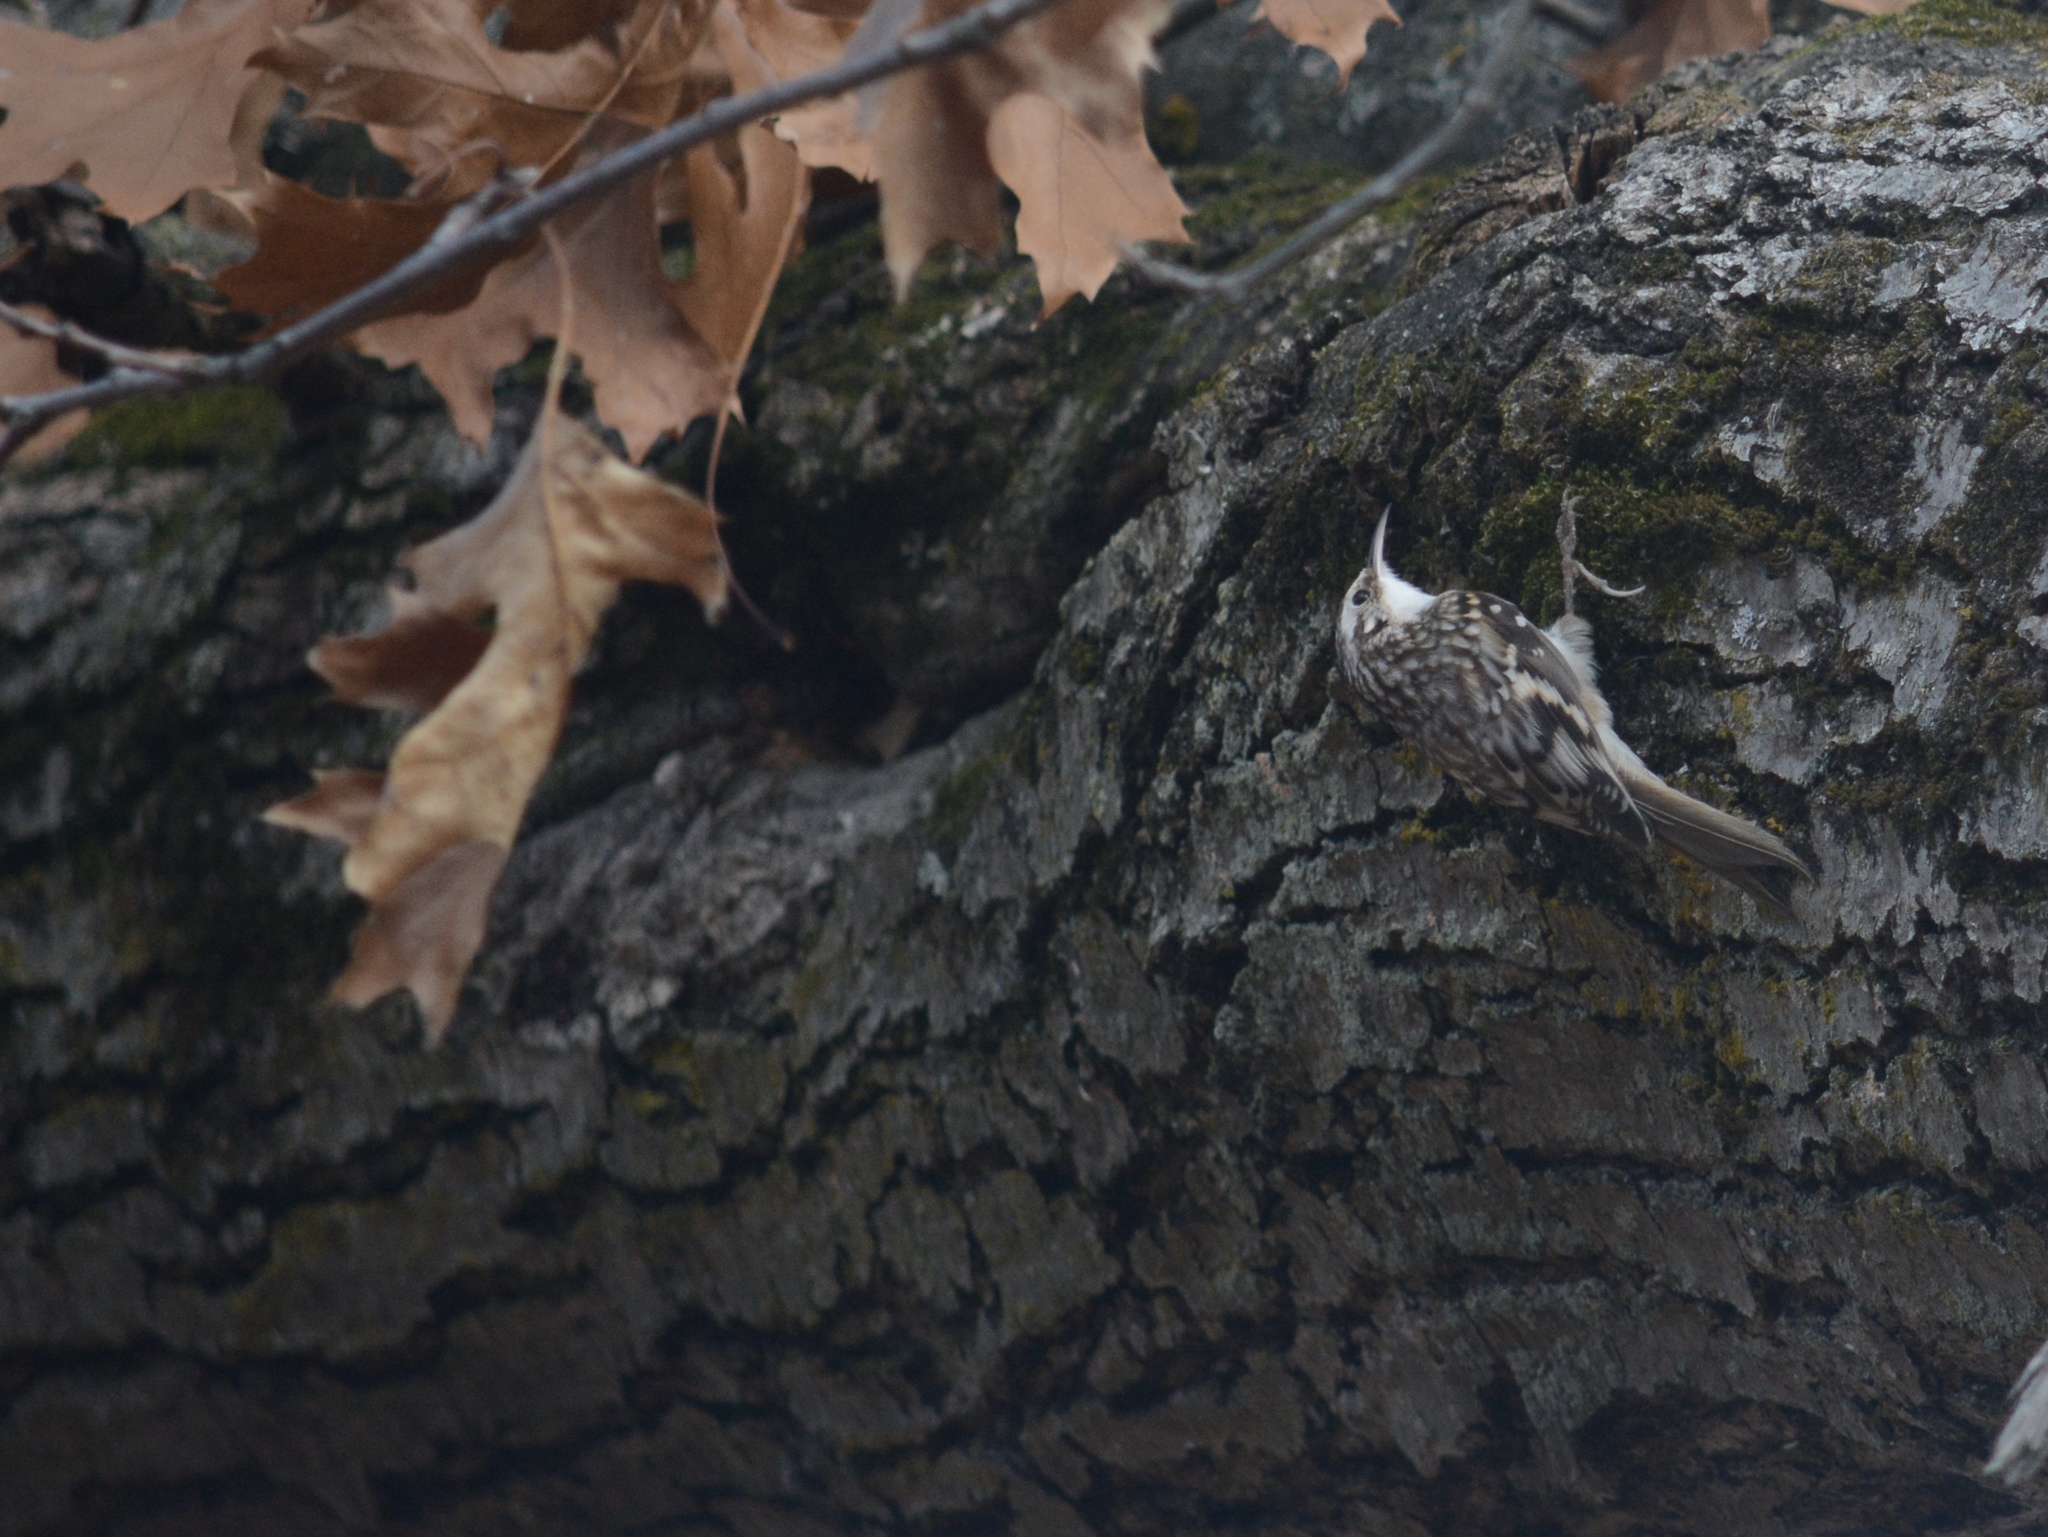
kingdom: Animalia
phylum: Chordata
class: Aves
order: Passeriformes
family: Certhiidae
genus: Certhia
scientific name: Certhia americana
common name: Brown creeper
